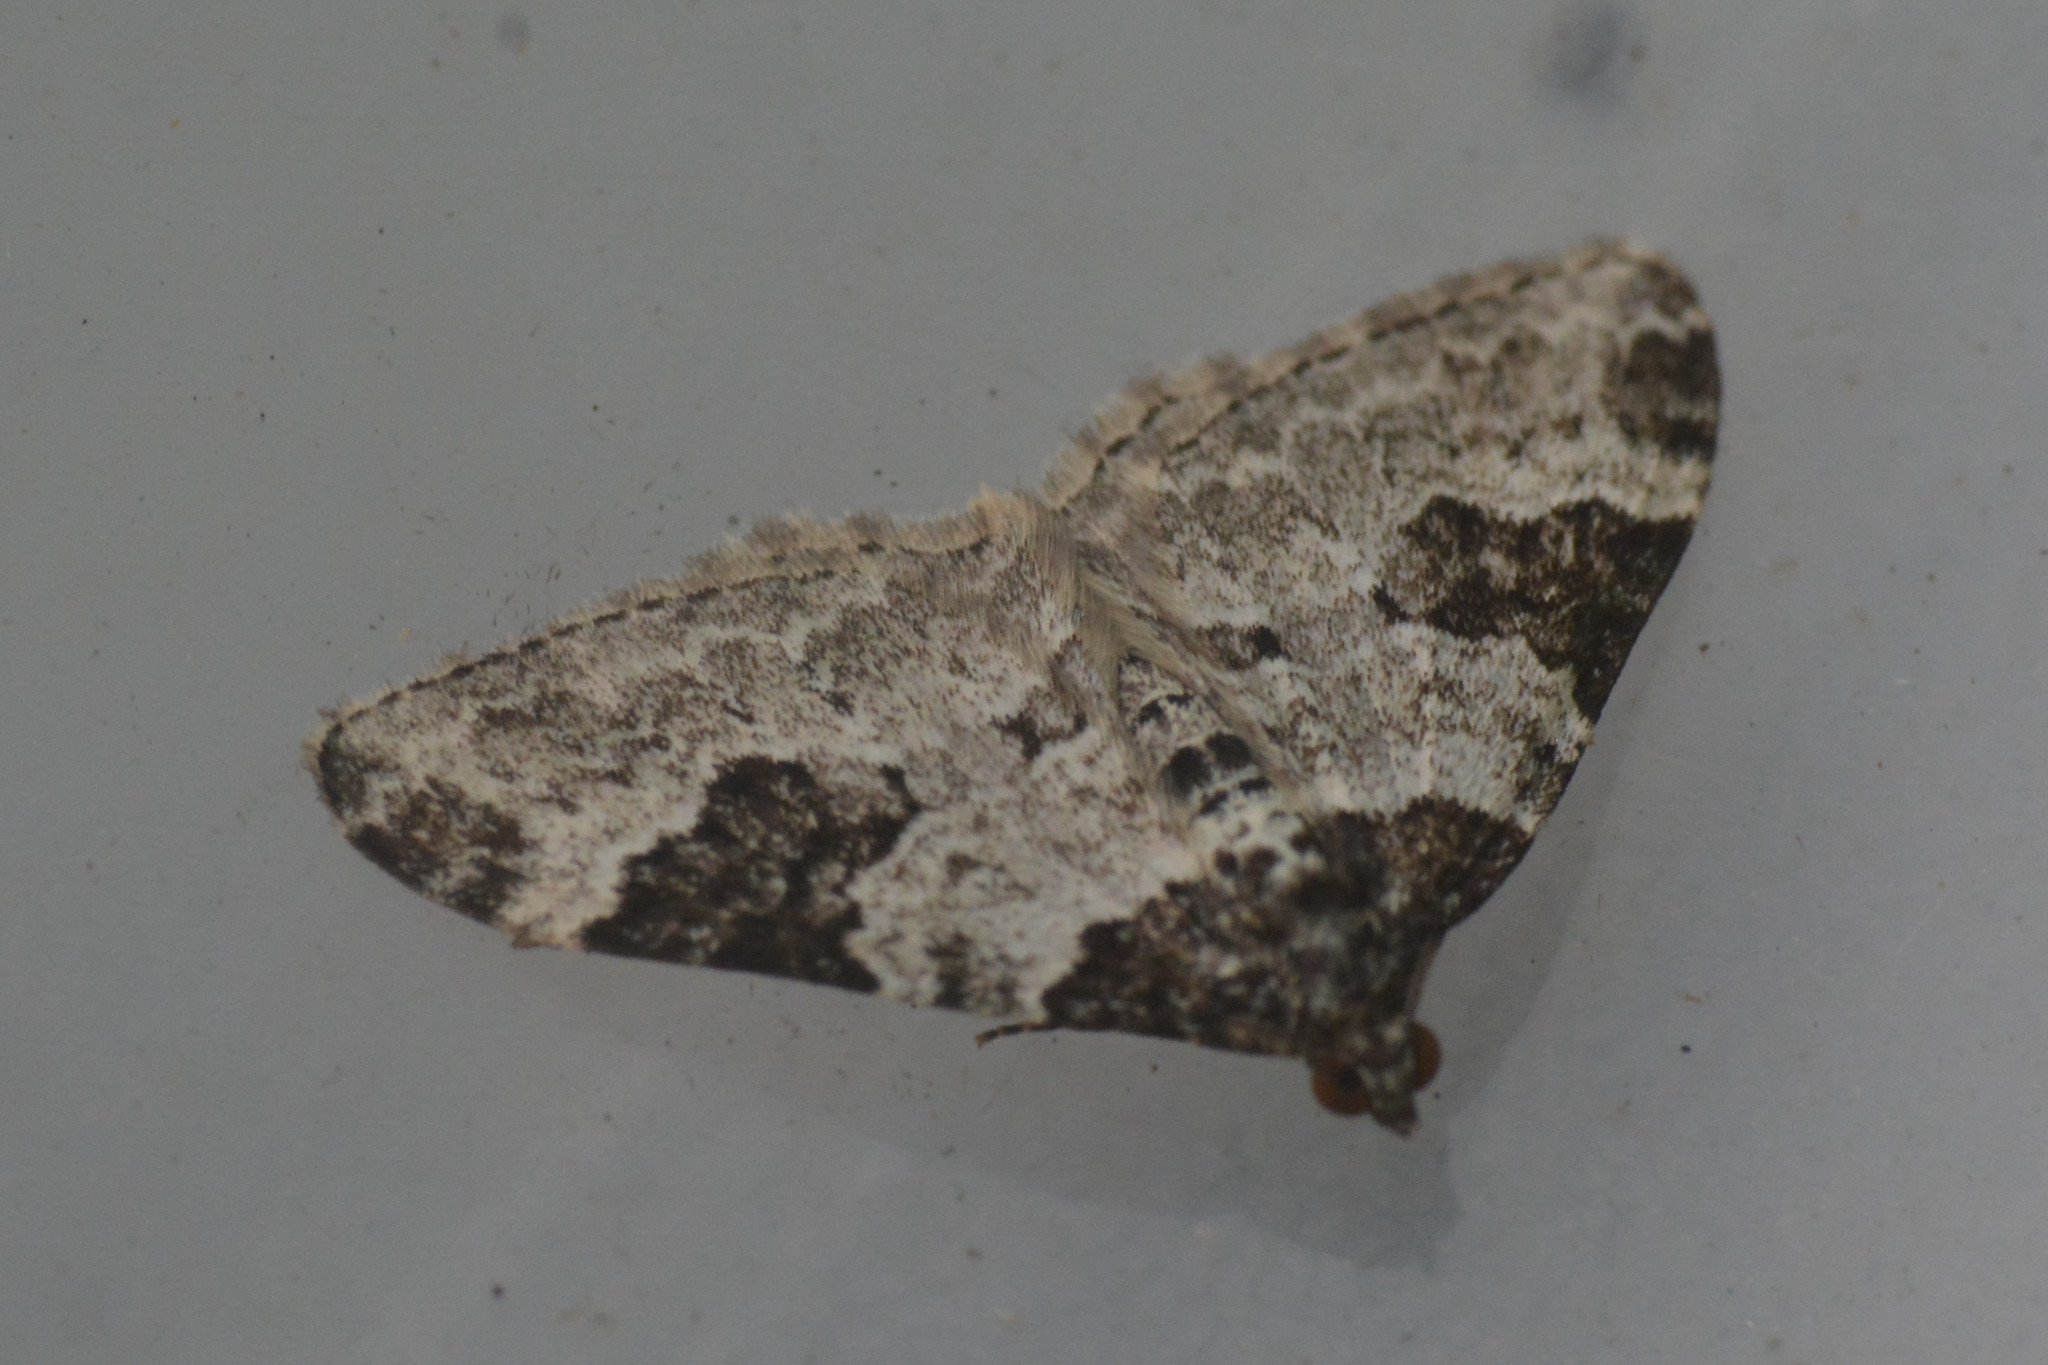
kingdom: Animalia
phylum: Arthropoda
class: Insecta
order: Lepidoptera
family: Geometridae
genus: Xanthorhoe
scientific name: Xanthorhoe fluctuata
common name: Garden carpet
